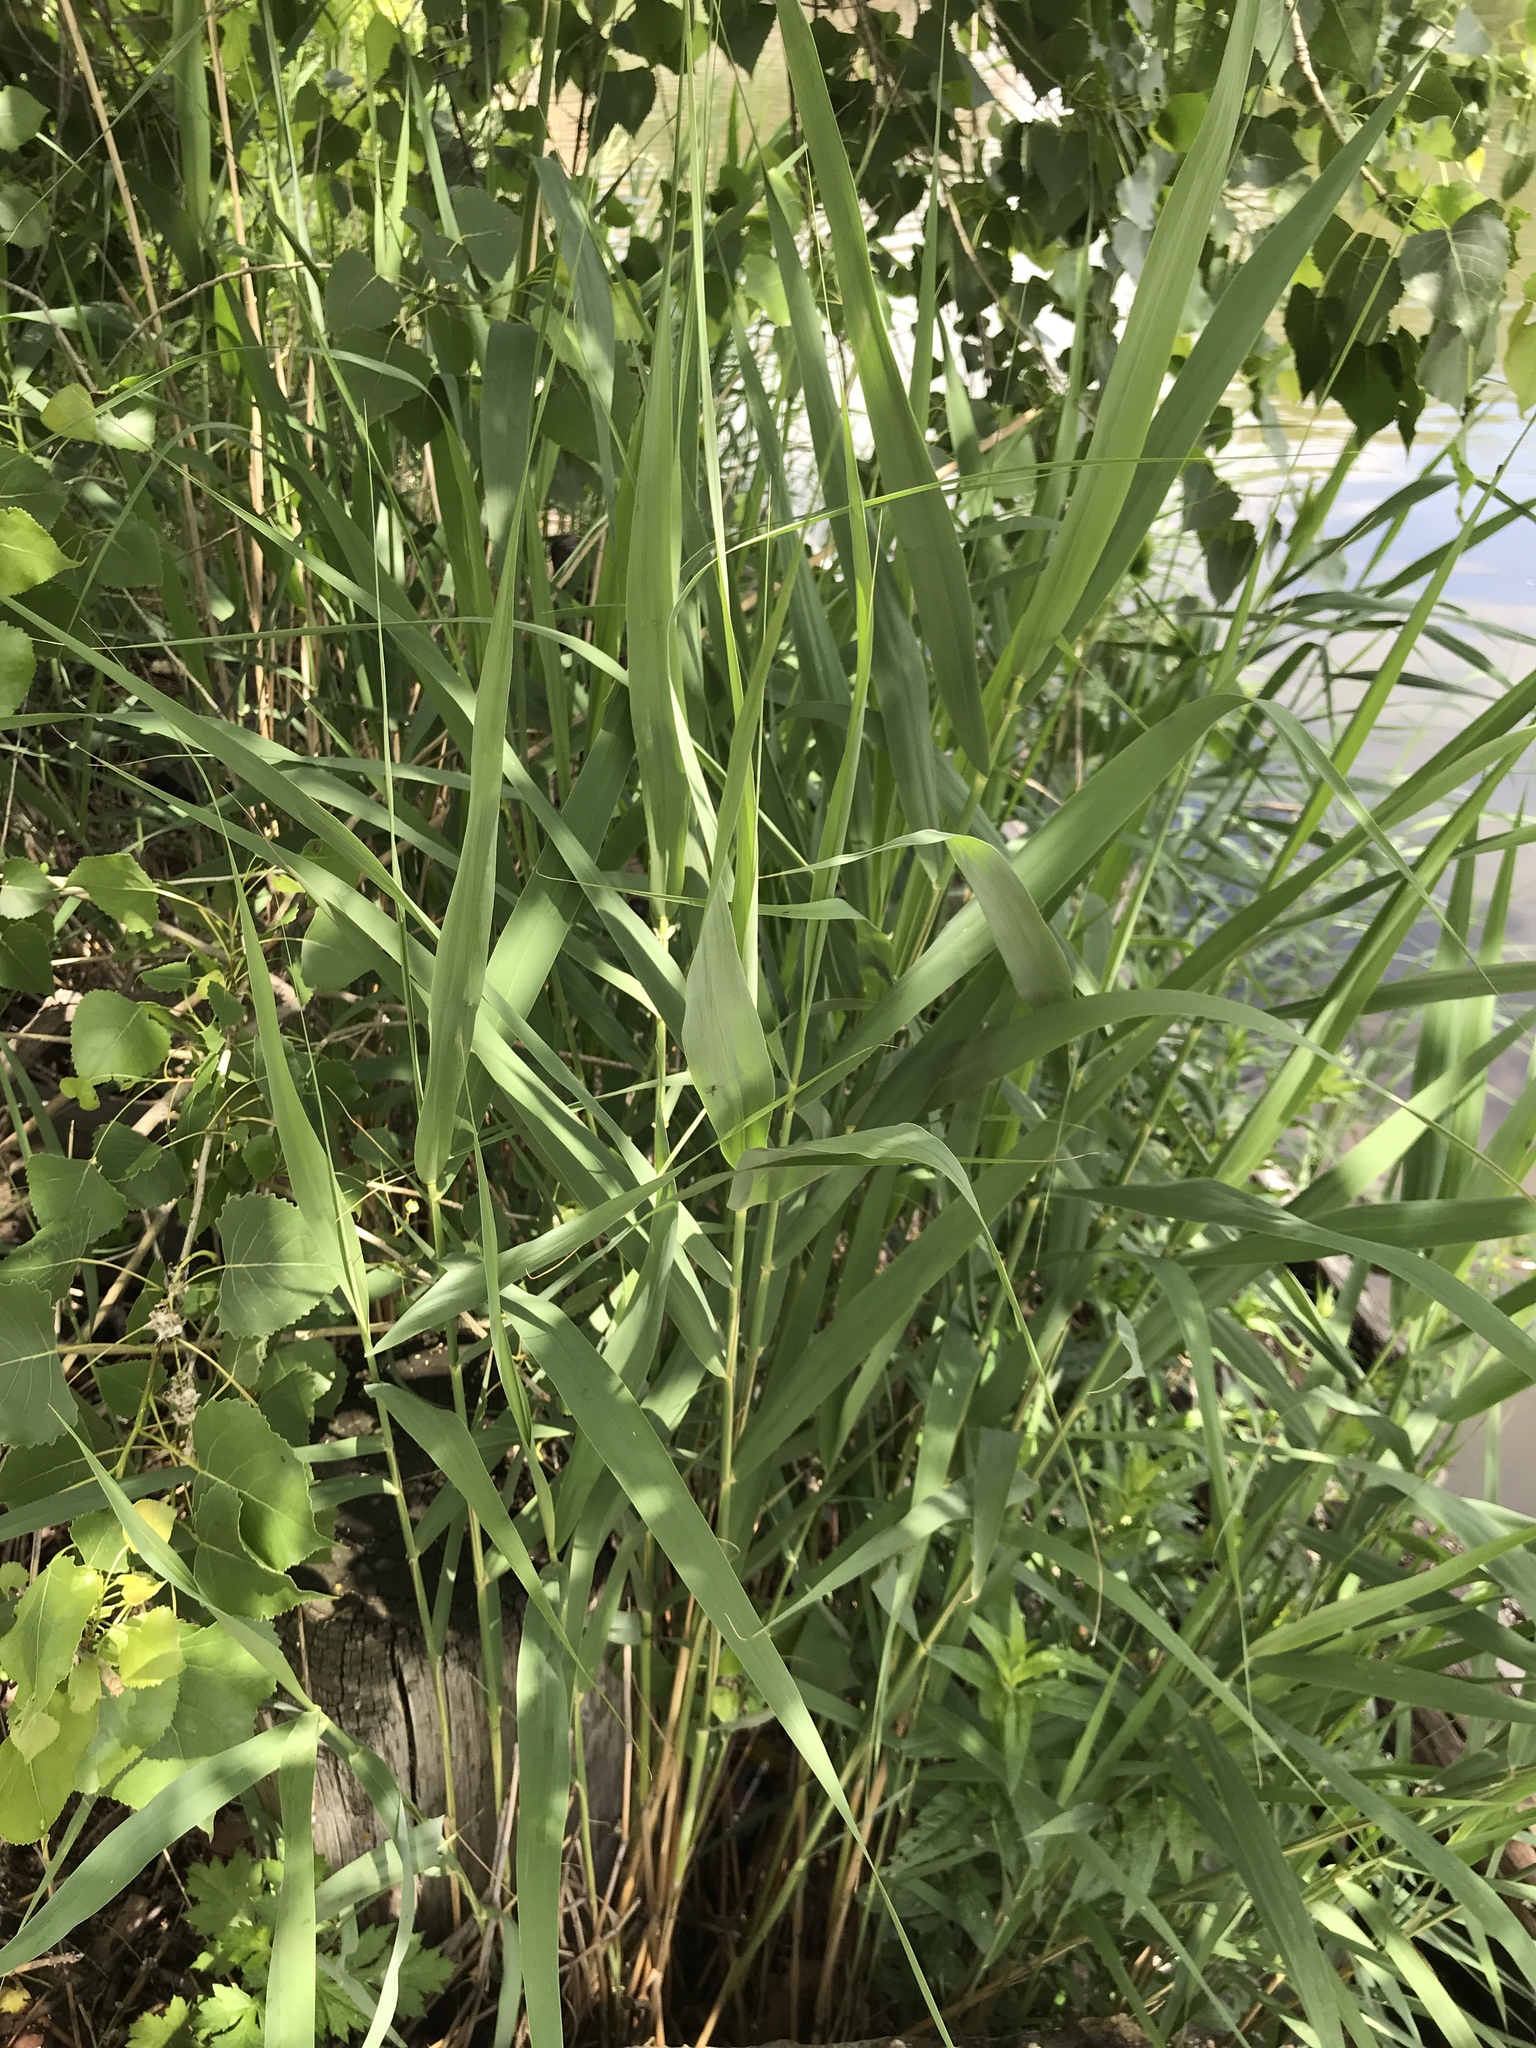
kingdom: Plantae
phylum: Tracheophyta
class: Liliopsida
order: Poales
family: Poaceae
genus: Phragmites
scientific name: Phragmites australis
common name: Common reed
